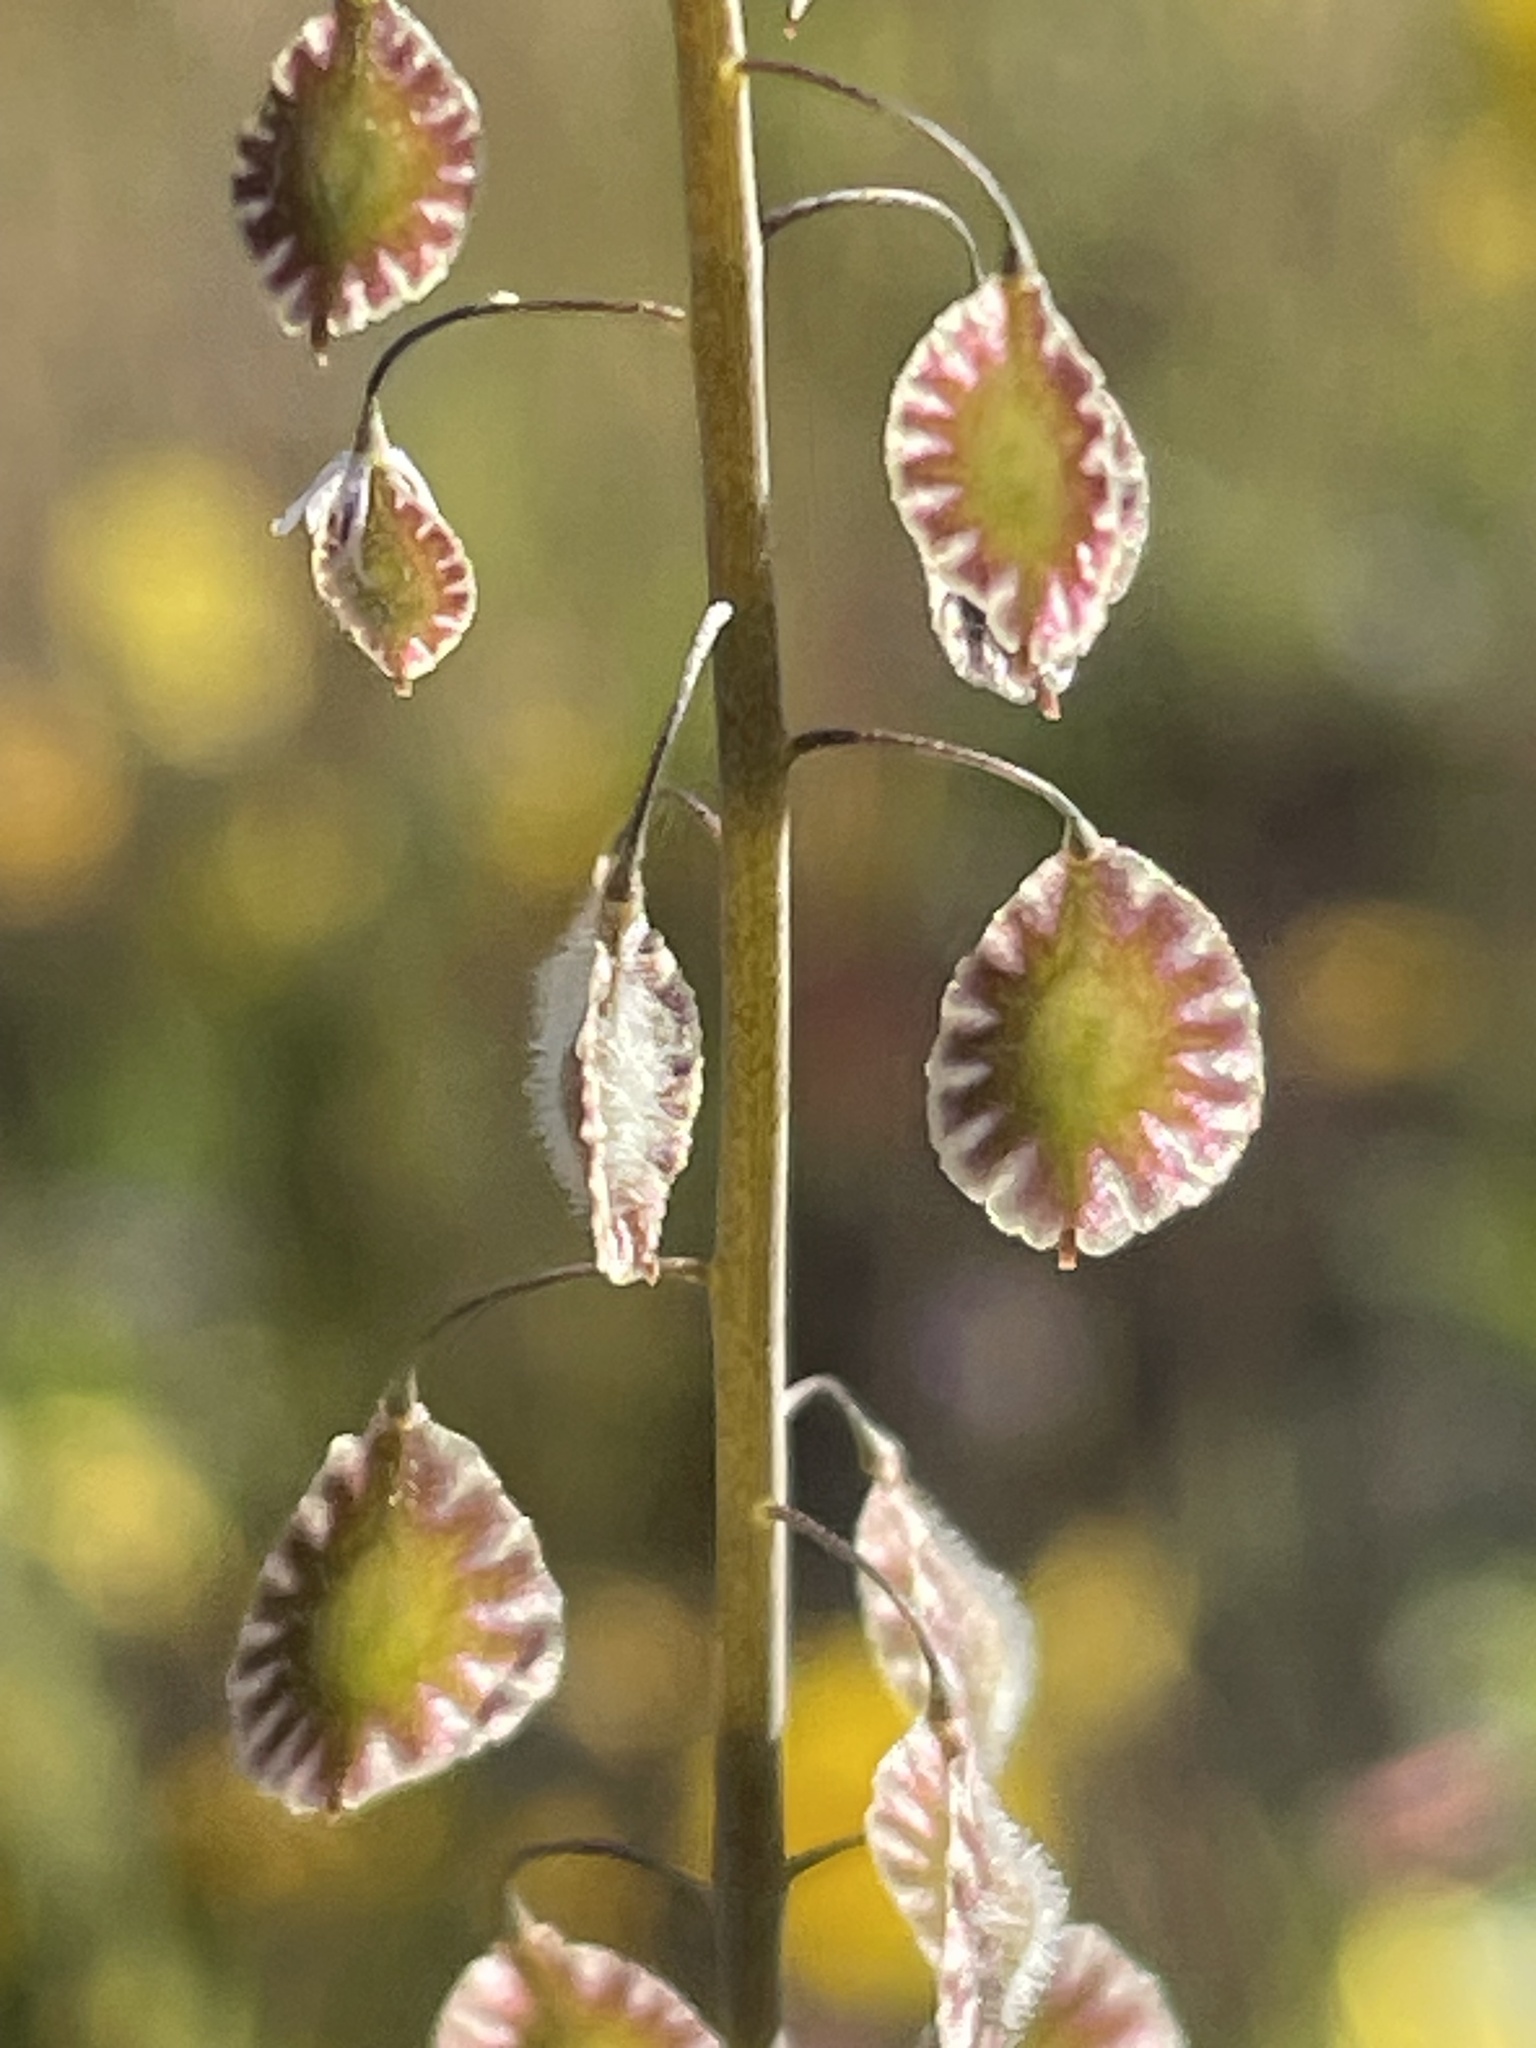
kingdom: Plantae
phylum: Tracheophyta
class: Magnoliopsida
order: Brassicales
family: Brassicaceae
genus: Thysanocarpus
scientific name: Thysanocarpus curvipes
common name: Sand fringepod
